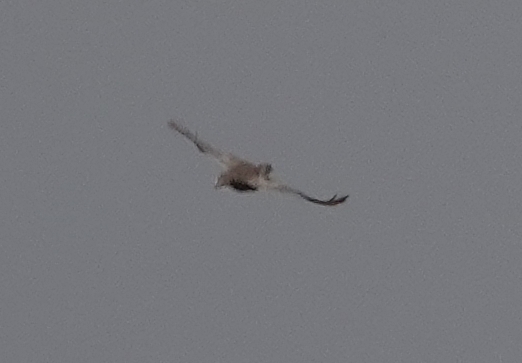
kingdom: Animalia
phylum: Chordata
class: Aves
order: Galliformes
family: Phasianidae
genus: Tympanuchus
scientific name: Tympanuchus phasianellus
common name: Sharp-tailed grouse
